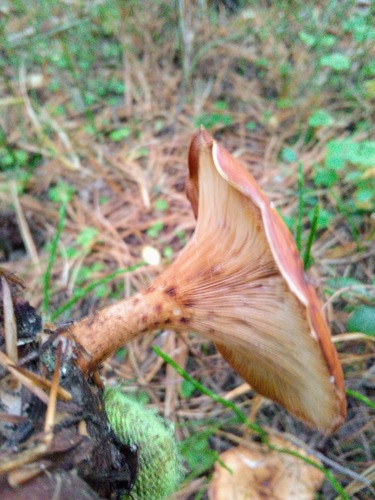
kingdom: Fungi
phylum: Basidiomycota
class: Agaricomycetes
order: Agaricales
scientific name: Agaricales
